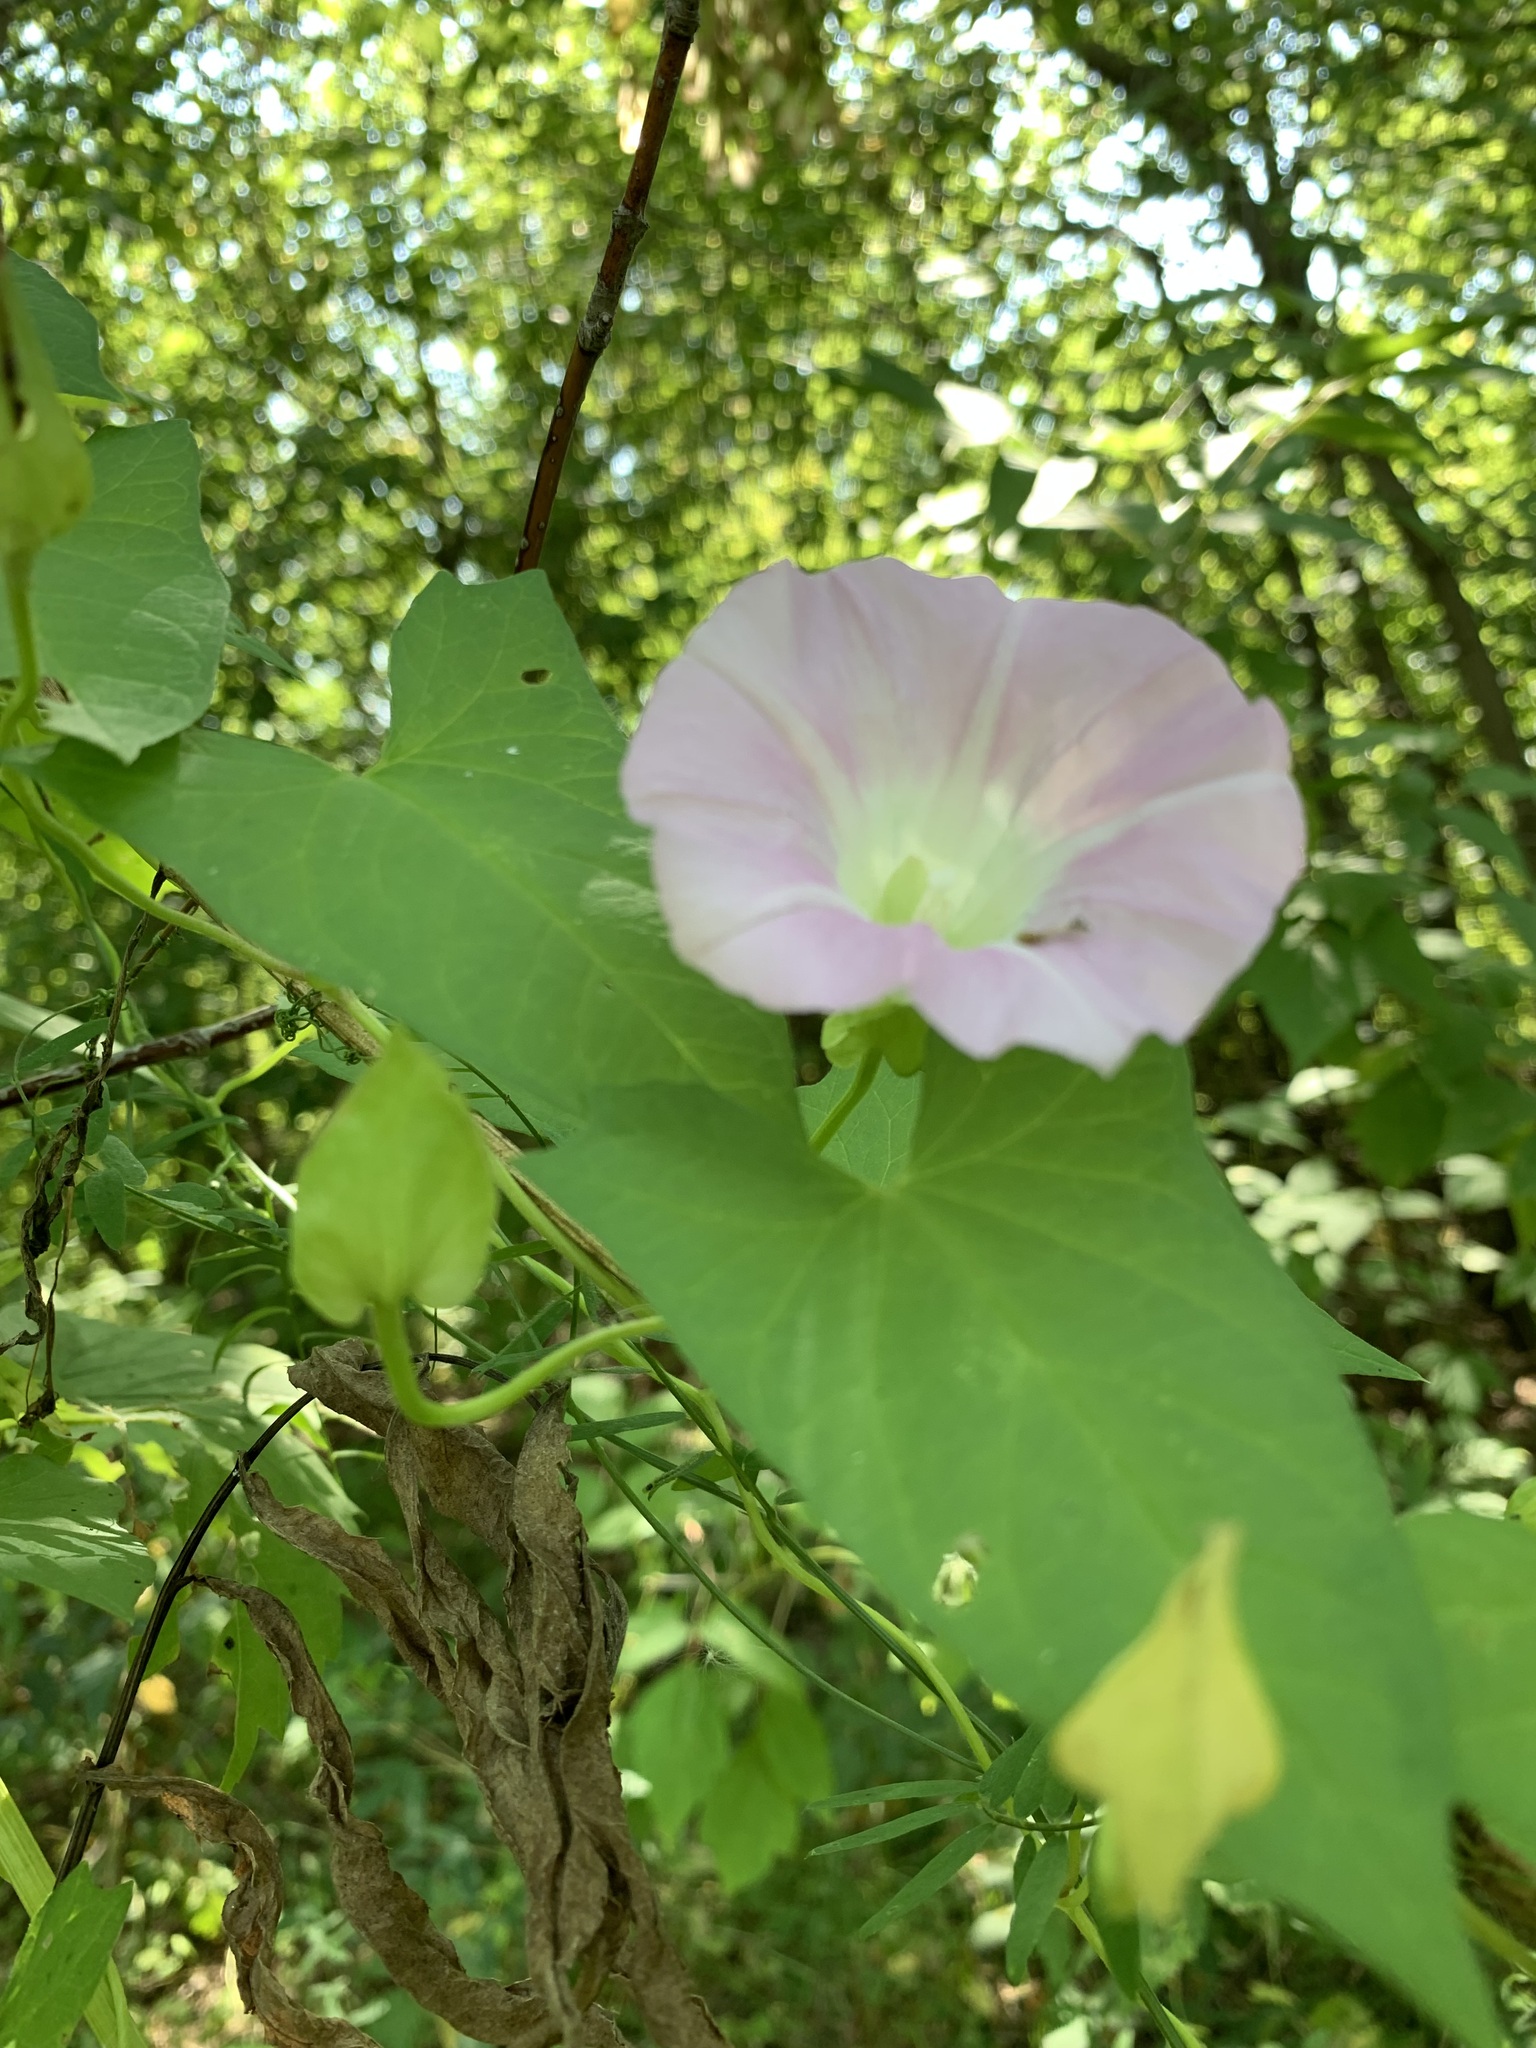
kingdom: Plantae
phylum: Tracheophyta
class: Magnoliopsida
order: Solanales
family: Convolvulaceae
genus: Calystegia
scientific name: Calystegia sepium
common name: Hedge bindweed
